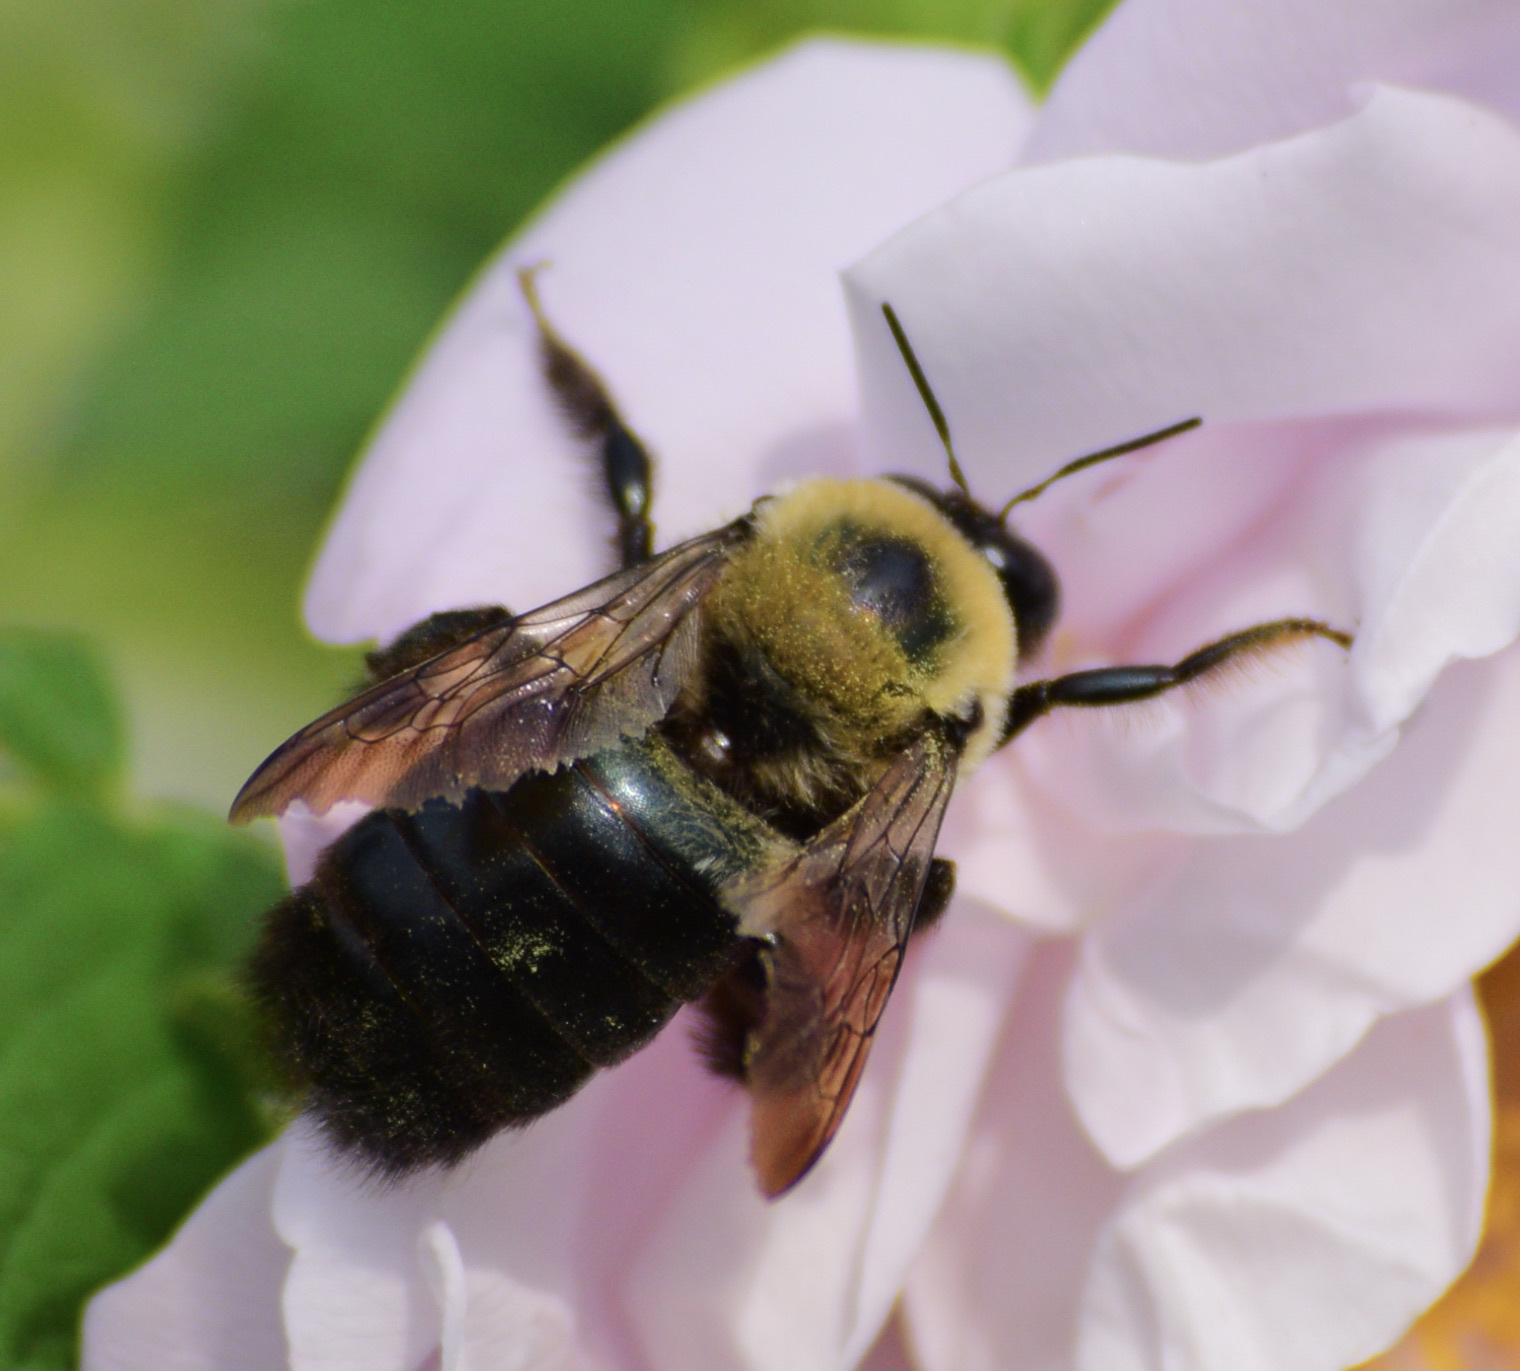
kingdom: Animalia
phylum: Arthropoda
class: Insecta
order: Hymenoptera
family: Apidae
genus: Xylocopa
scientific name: Xylocopa virginica
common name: Carpenter bee
